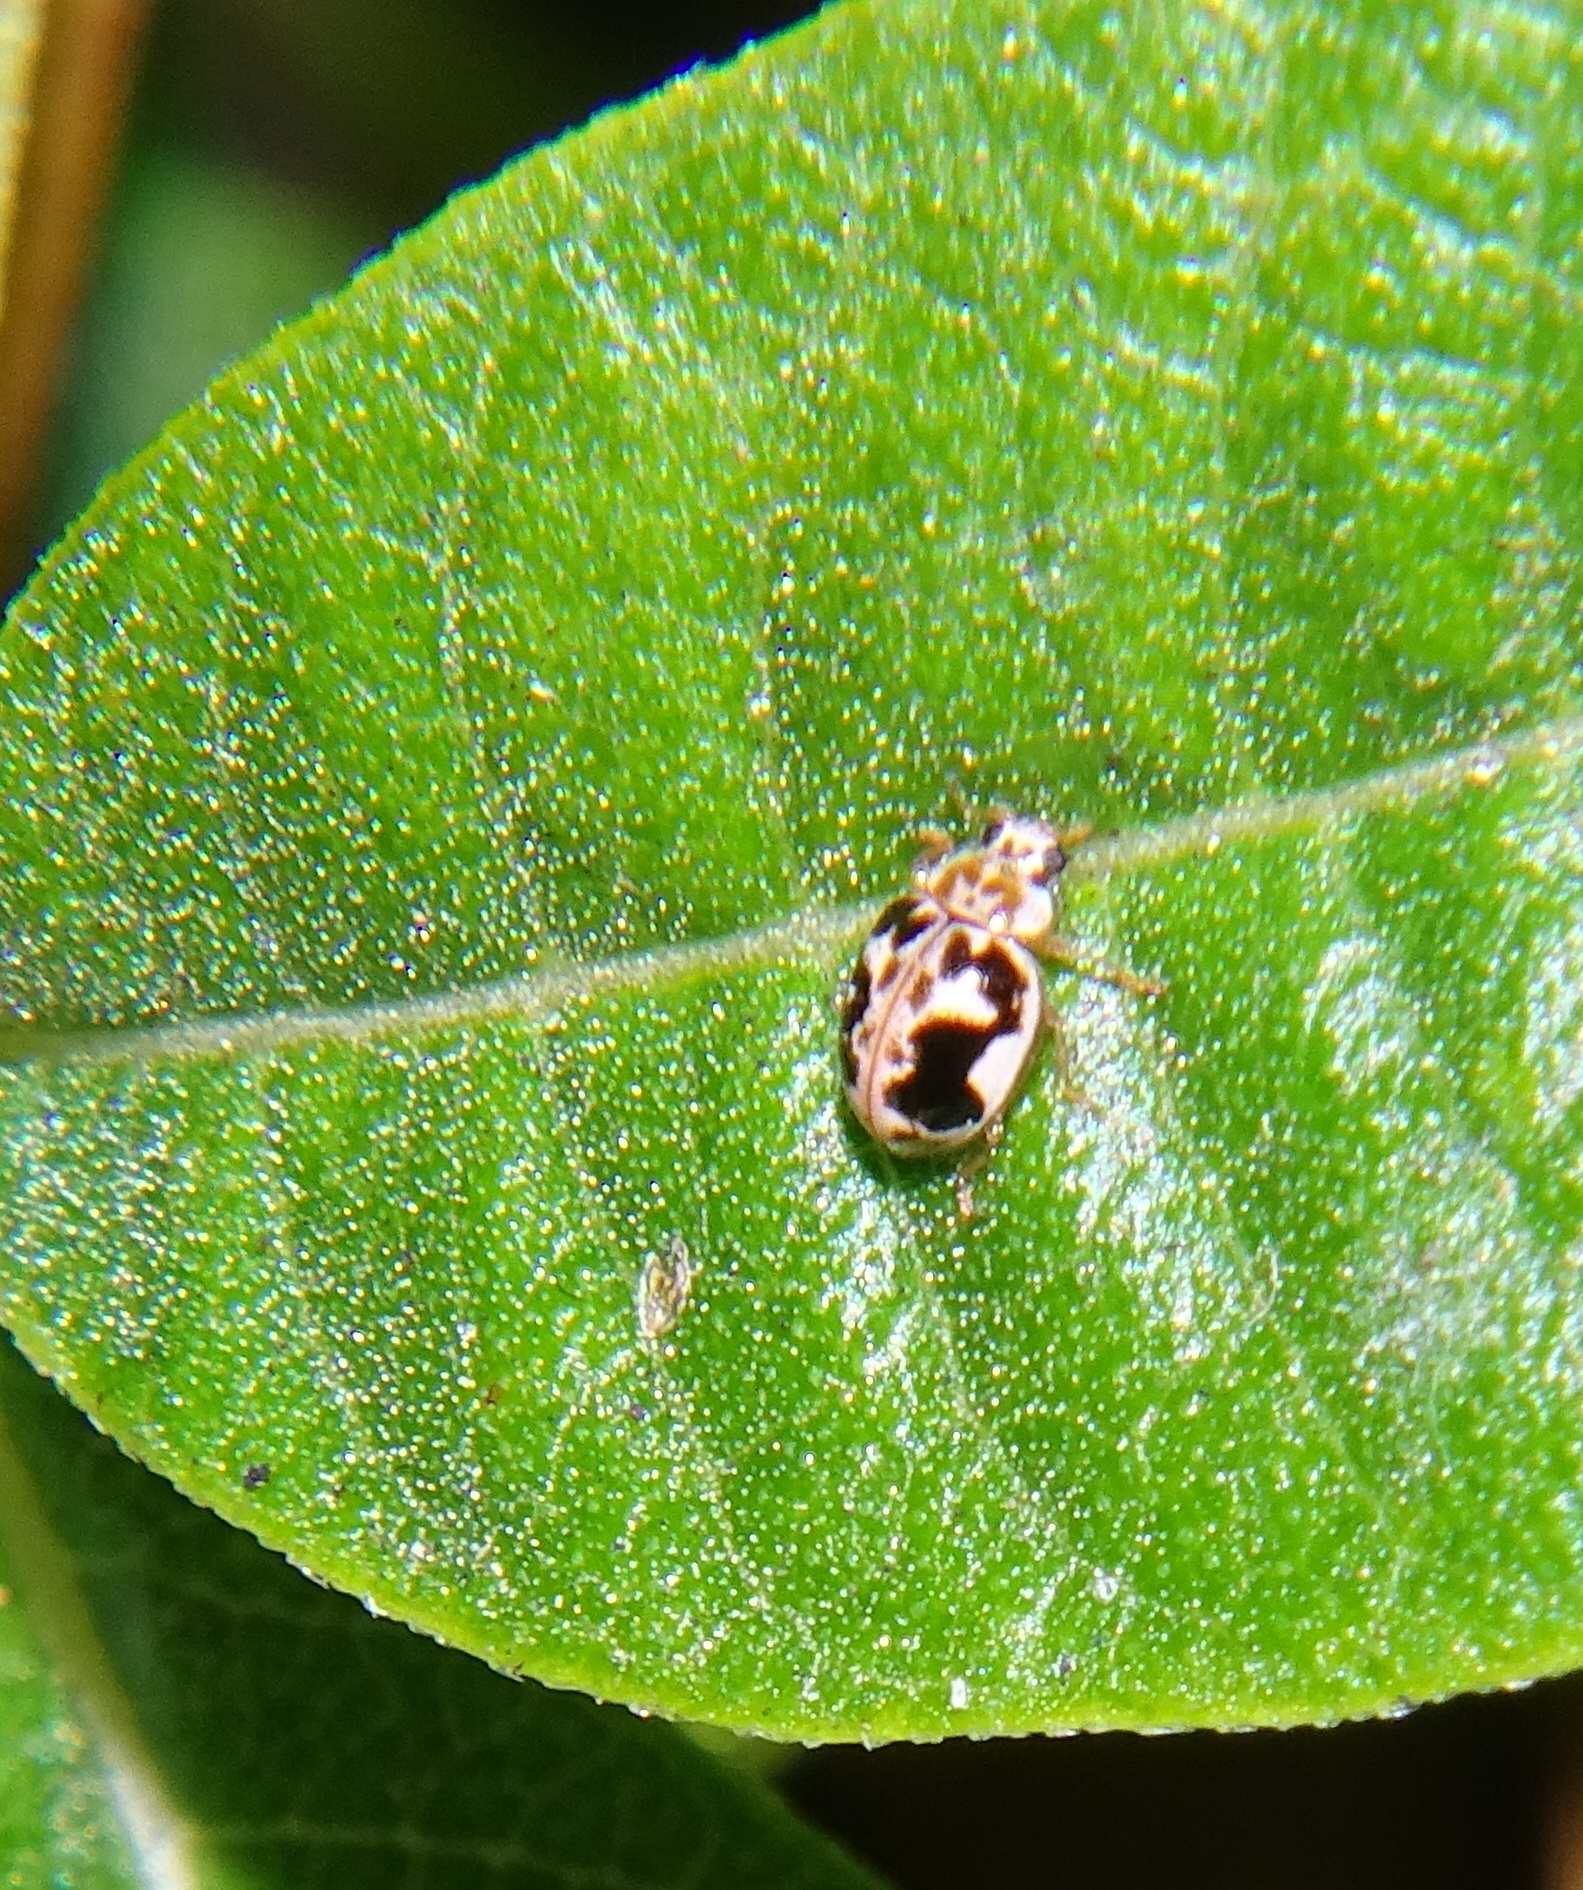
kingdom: Animalia
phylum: Arthropoda
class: Insecta
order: Coleoptera
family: Coccinellidae
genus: Psyllobora
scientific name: Psyllobora renifer
